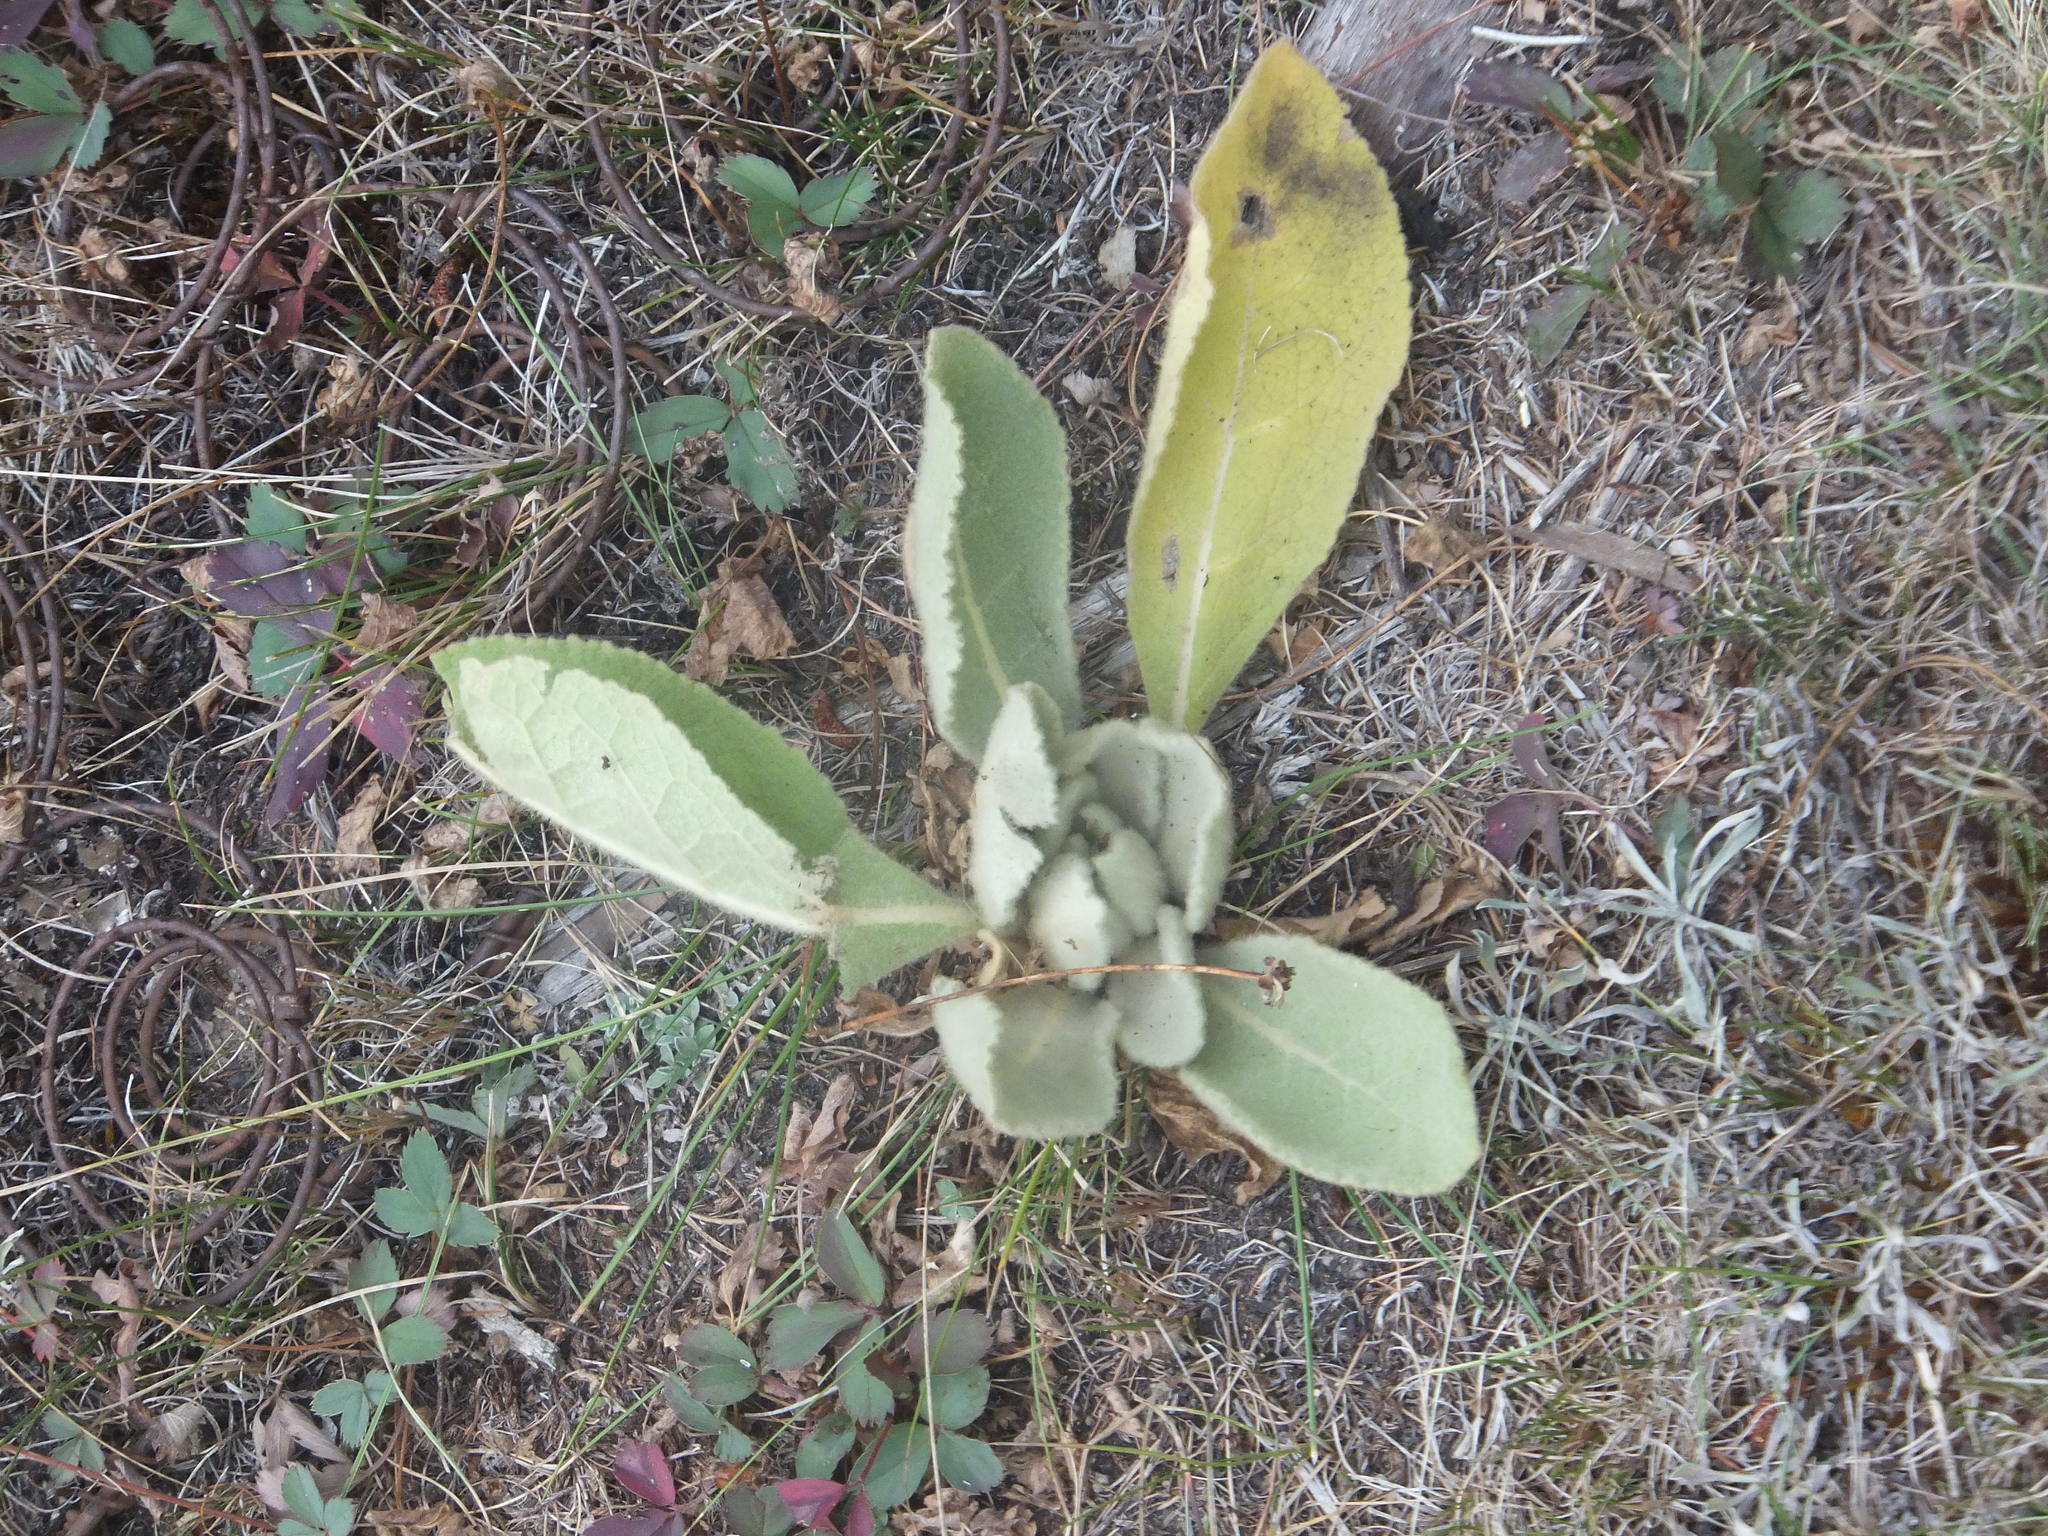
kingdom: Plantae
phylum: Tracheophyta
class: Magnoliopsida
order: Lamiales
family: Scrophulariaceae
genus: Verbascum
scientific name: Verbascum thapsus
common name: Common mullein
